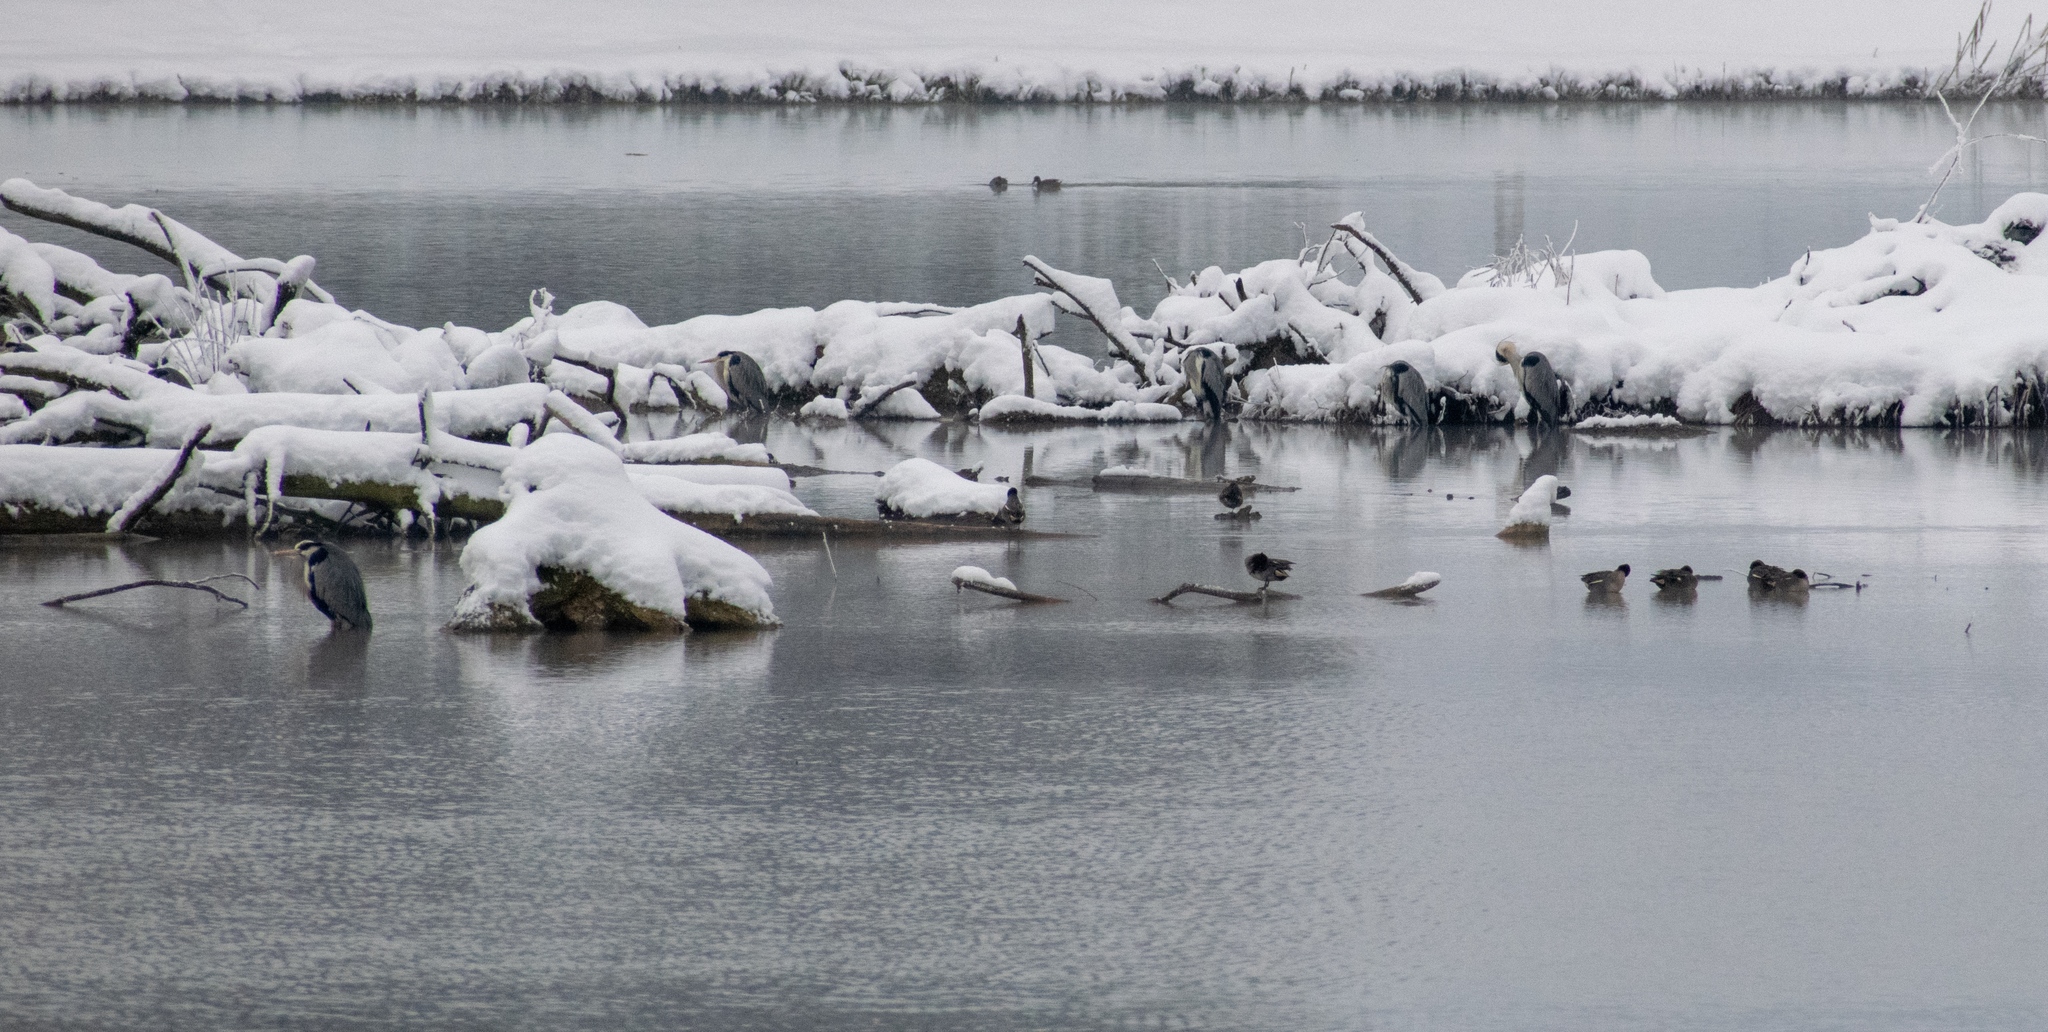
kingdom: Animalia
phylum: Chordata
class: Aves
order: Pelecaniformes
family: Ardeidae
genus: Ardea
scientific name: Ardea cinerea
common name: Grey heron
